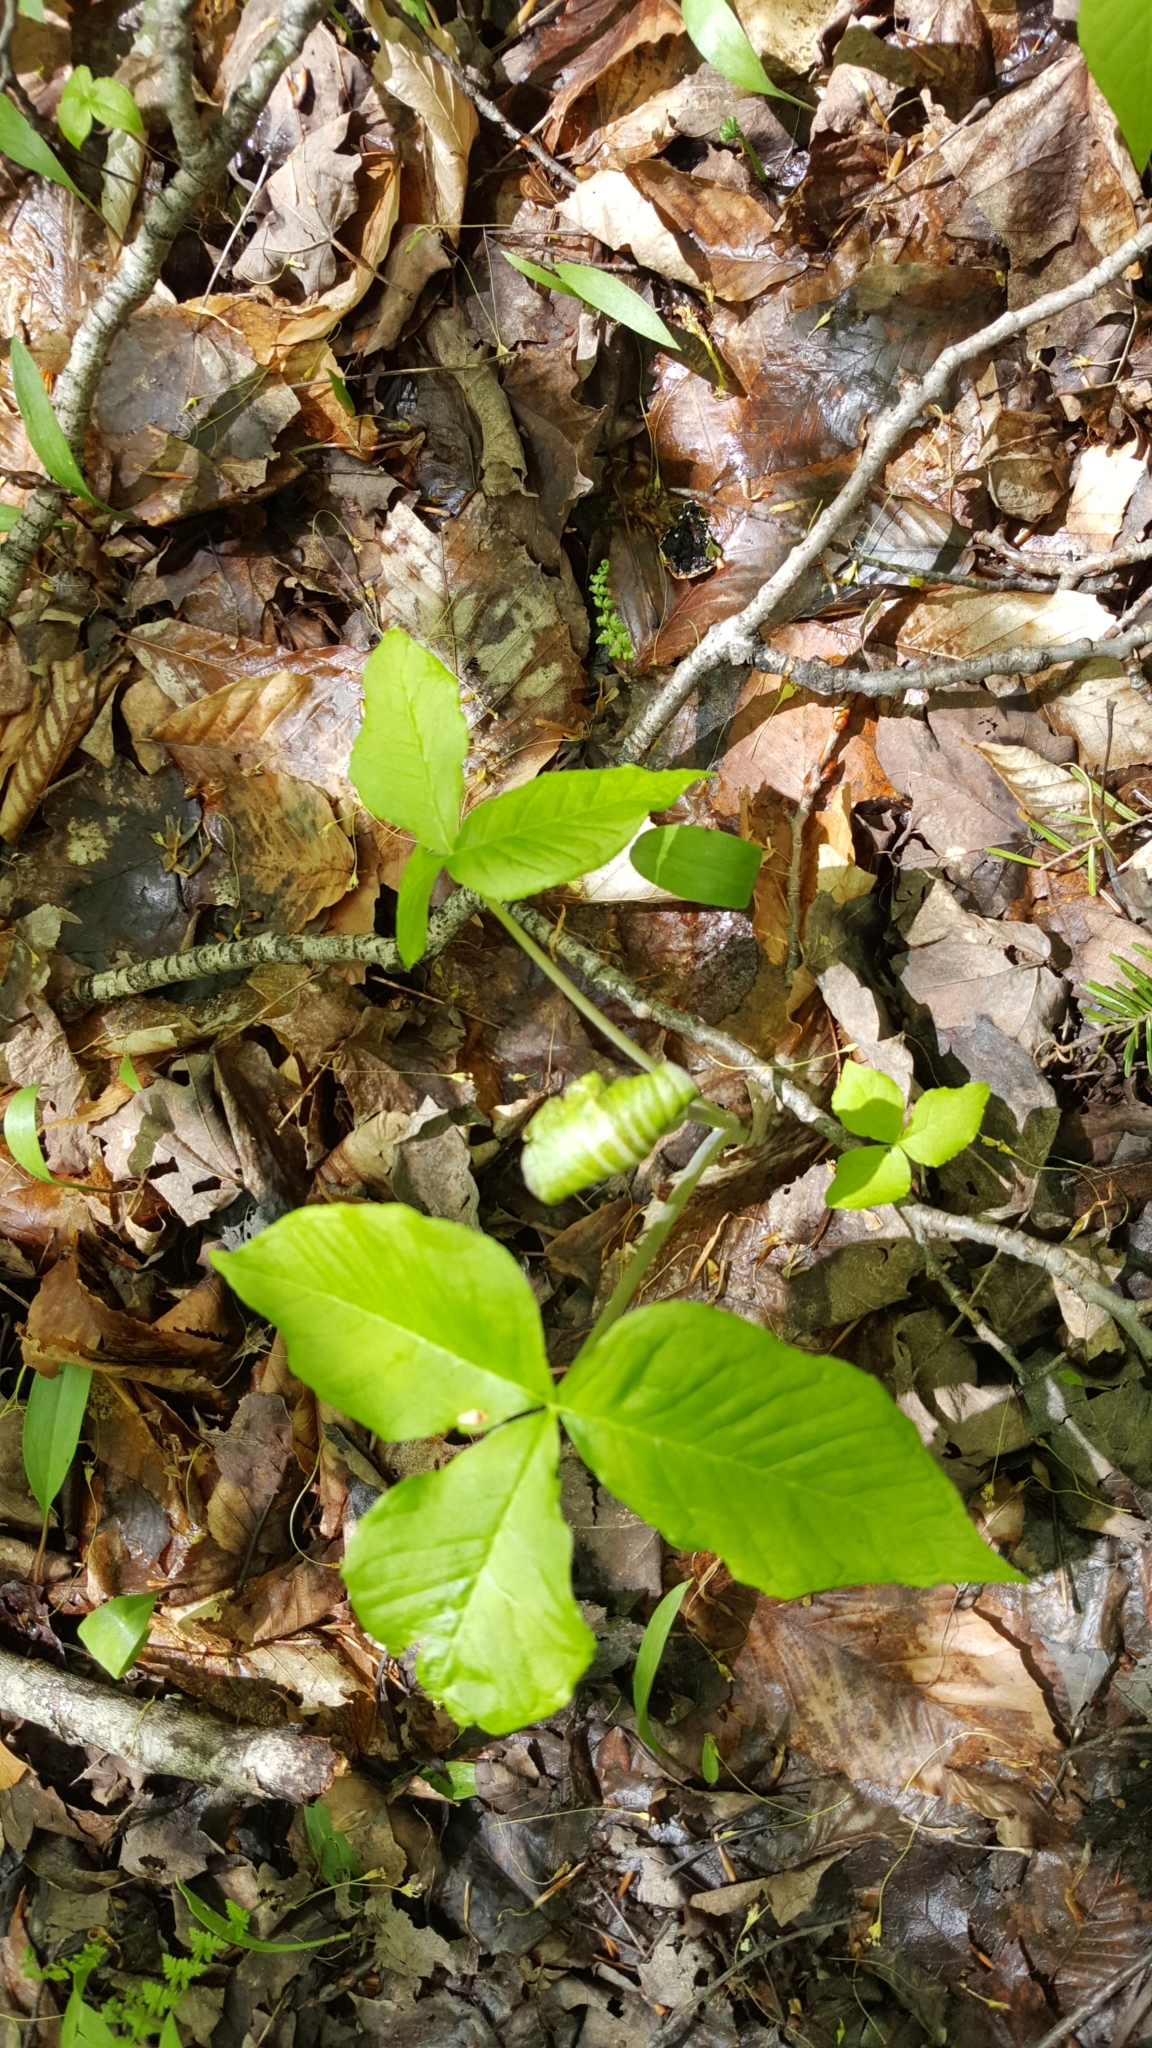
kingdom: Plantae
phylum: Tracheophyta
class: Liliopsida
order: Alismatales
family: Araceae
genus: Arisaema
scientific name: Arisaema triphyllum
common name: Jack-in-the-pulpit
